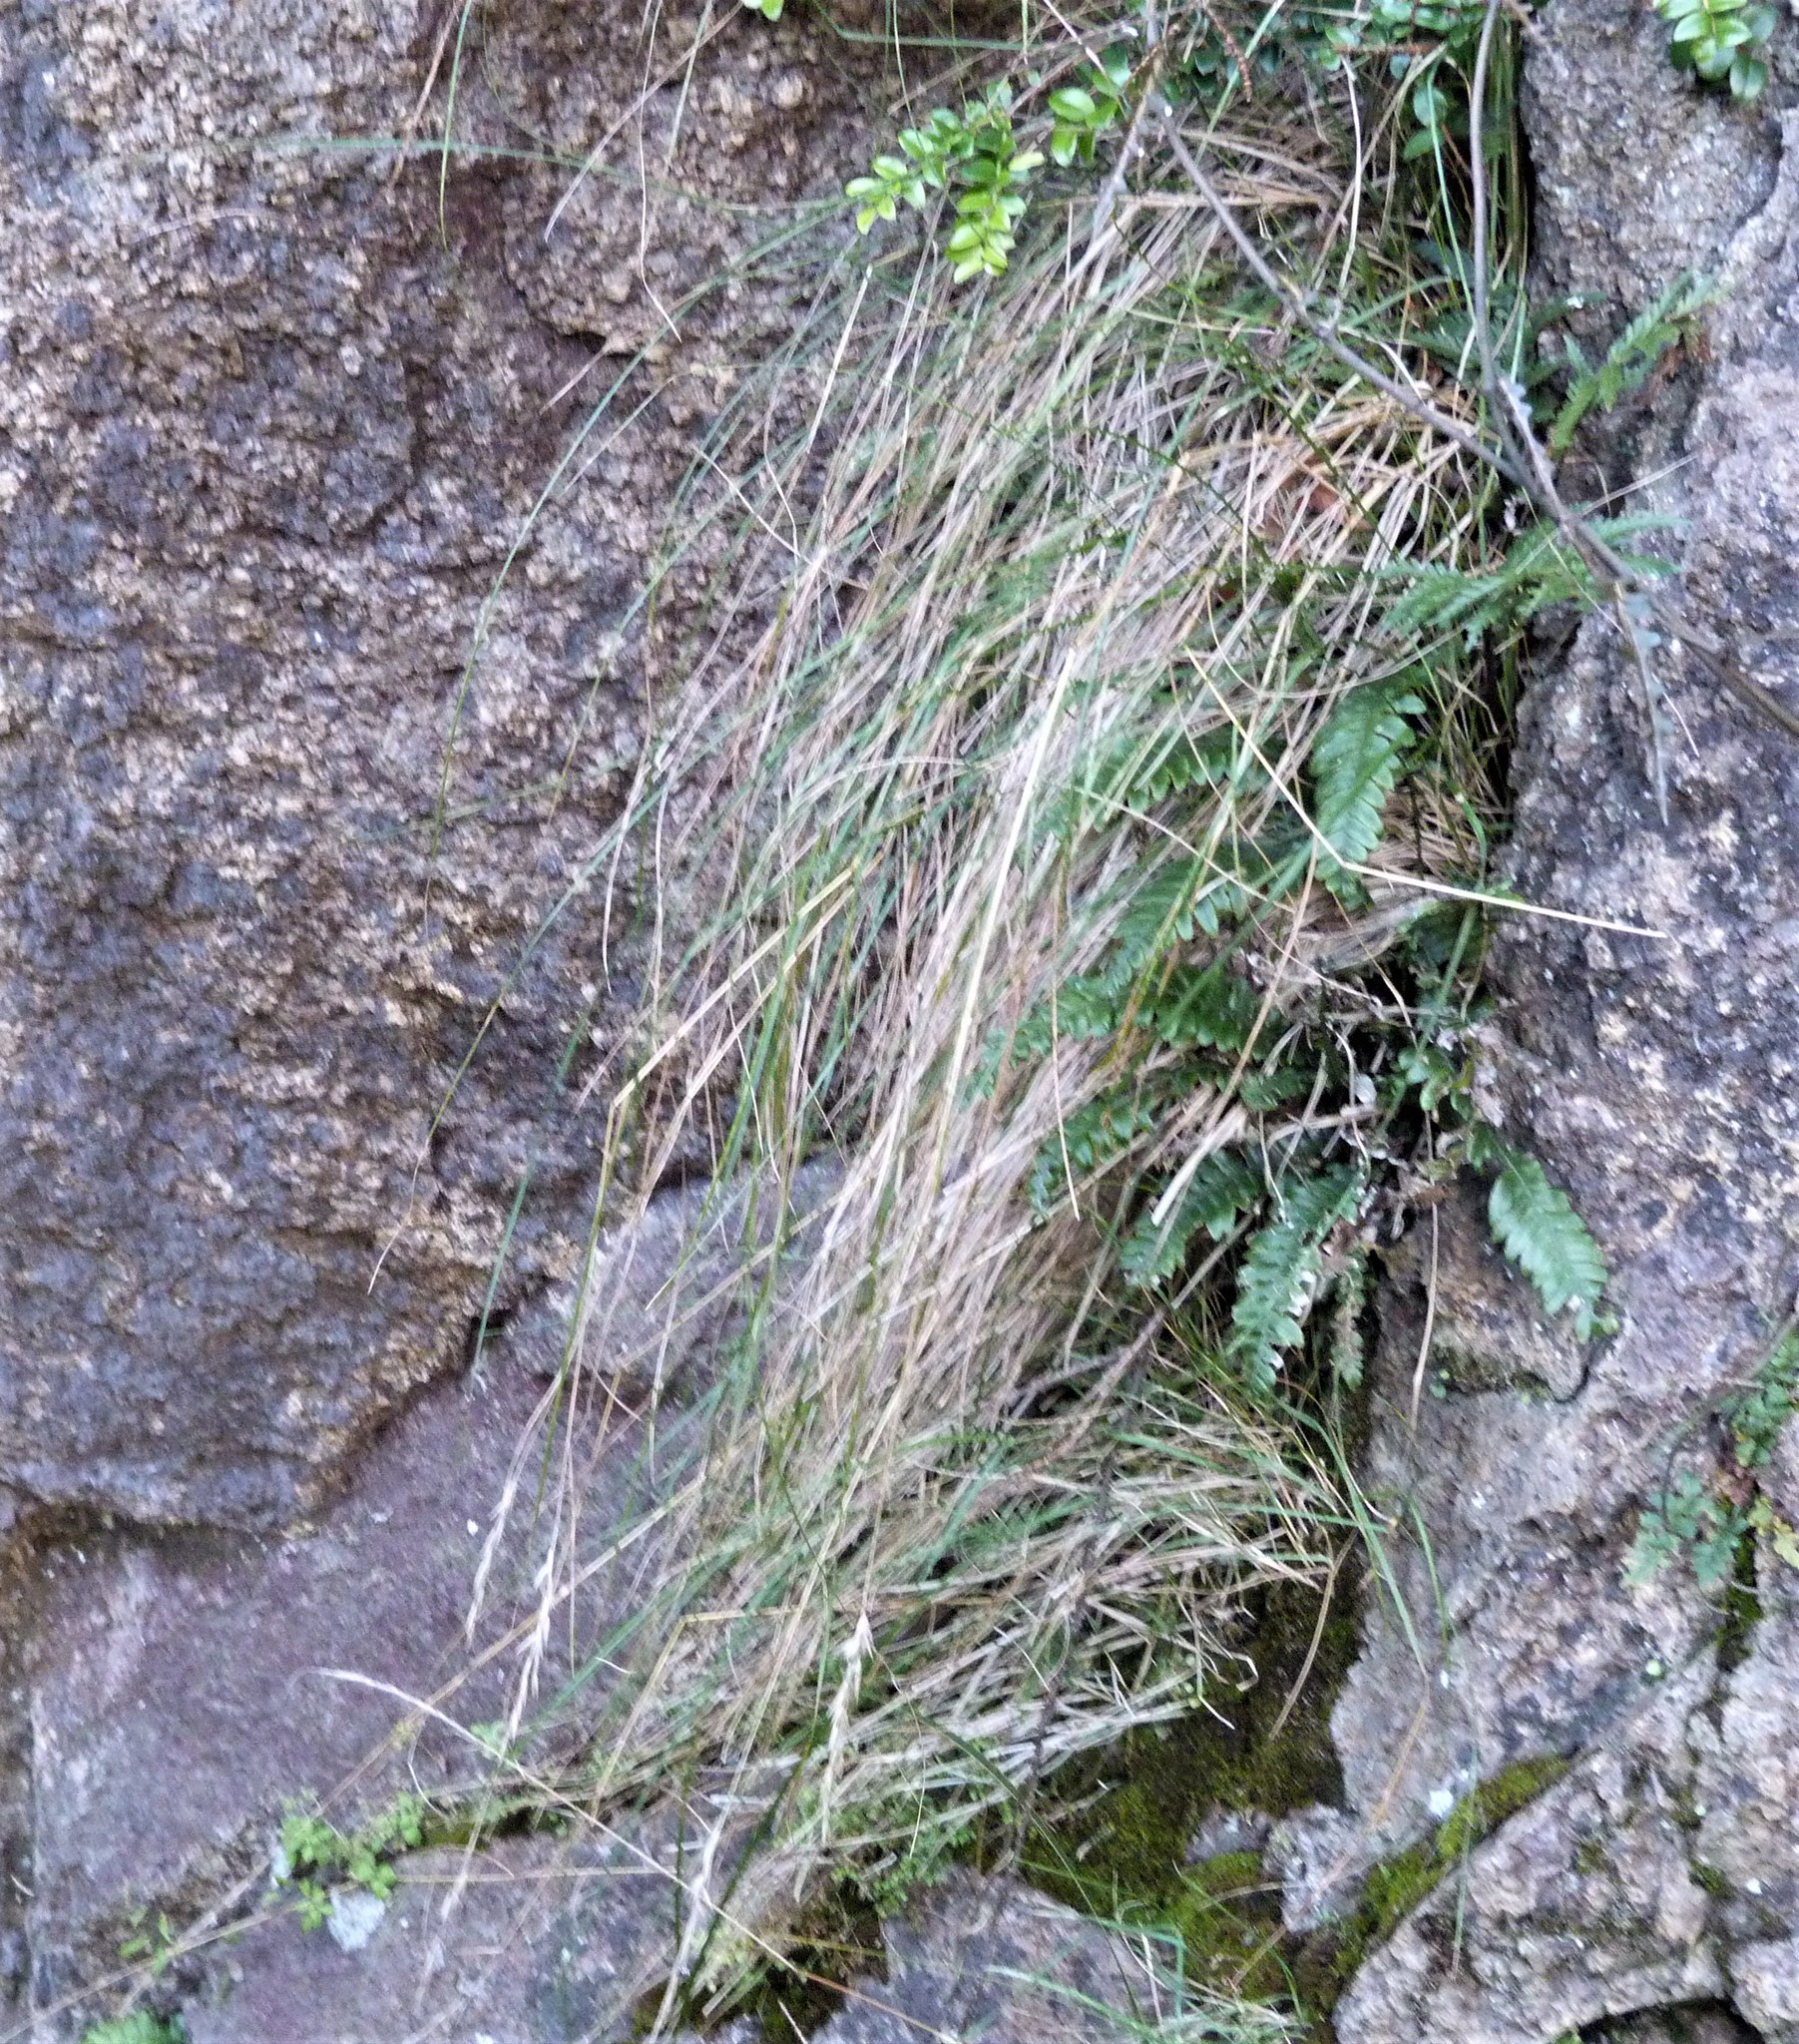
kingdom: Plantae
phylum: Tracheophyta
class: Liliopsida
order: Poales
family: Poaceae
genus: Rytidosperma
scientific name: Rytidosperma gracile
